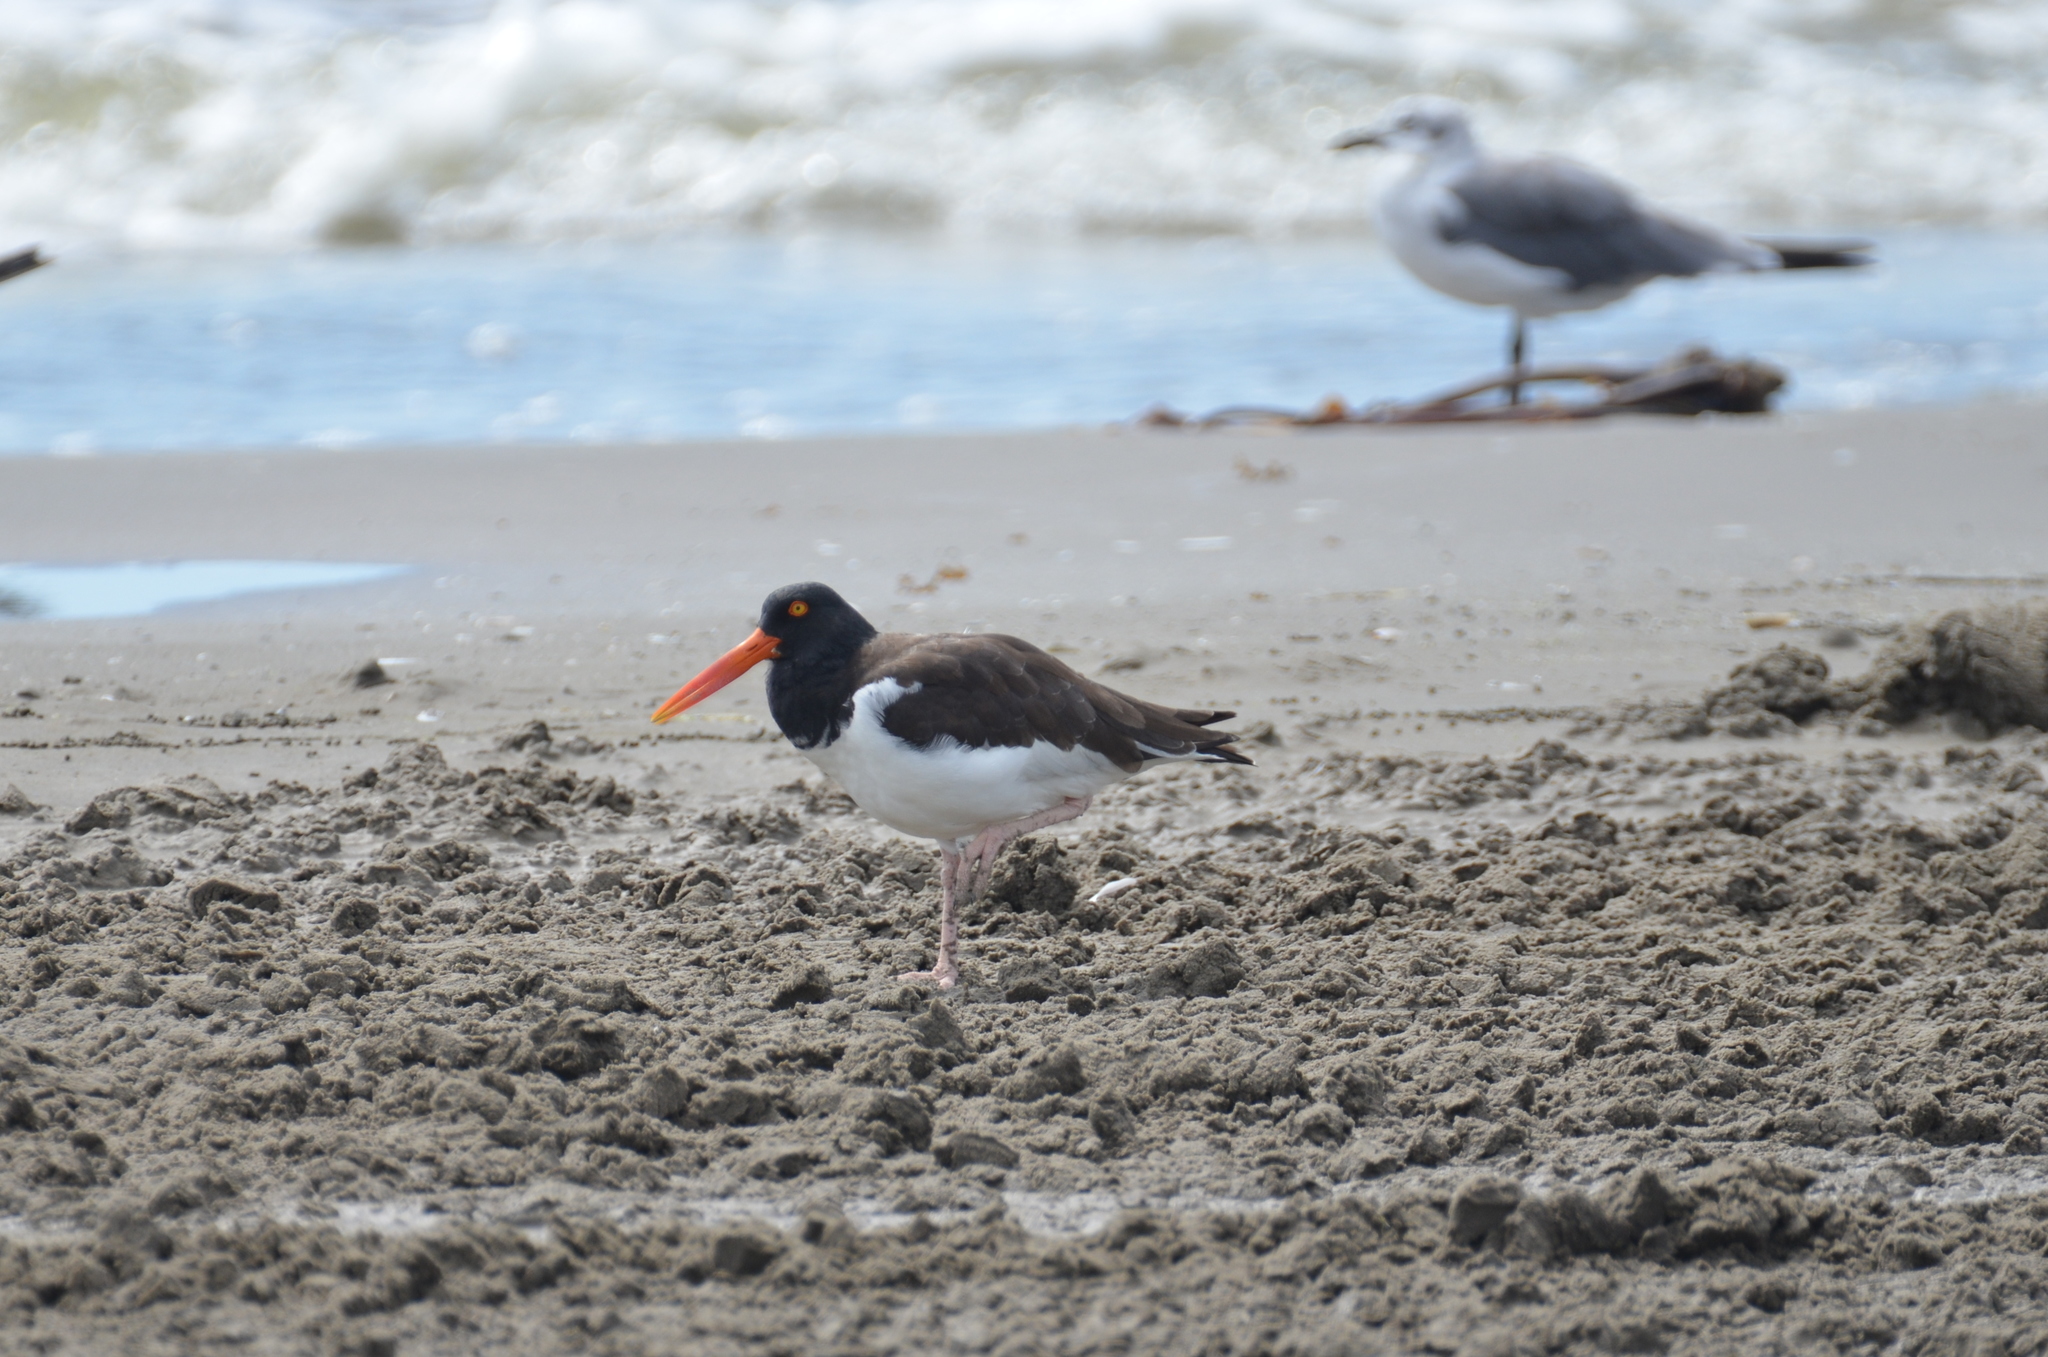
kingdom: Animalia
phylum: Chordata
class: Aves
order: Charadriiformes
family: Haematopodidae
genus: Haematopus
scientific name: Haematopus palliatus
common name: American oystercatcher
